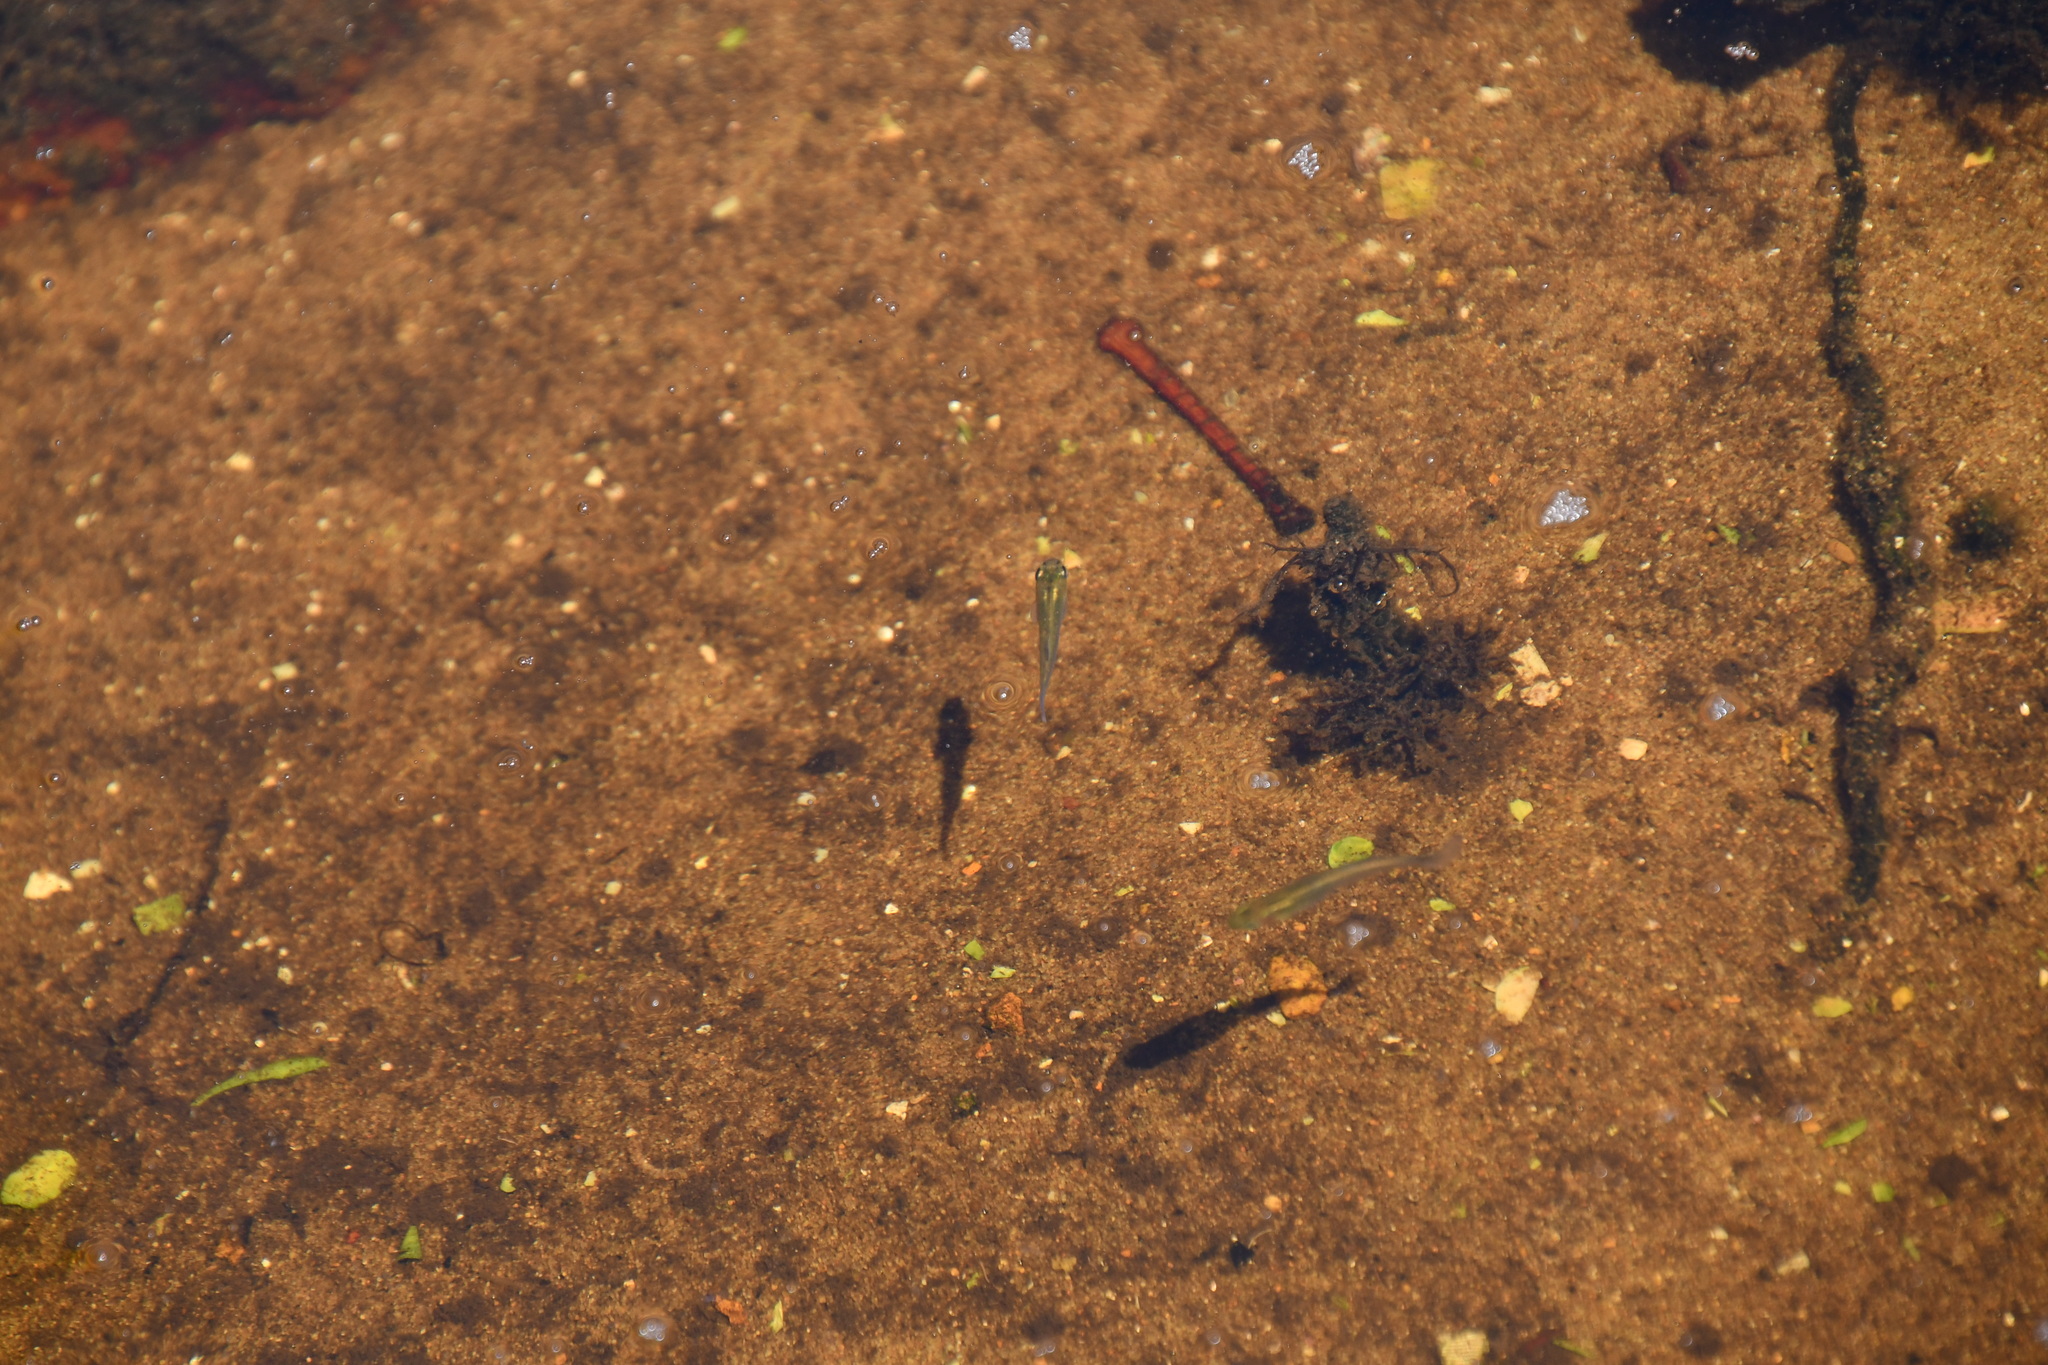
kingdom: Animalia
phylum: Chordata
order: Cyprinodontiformes
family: Poeciliidae
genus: Gambusia
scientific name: Gambusia holbrooki
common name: Eastern mosquitofish
